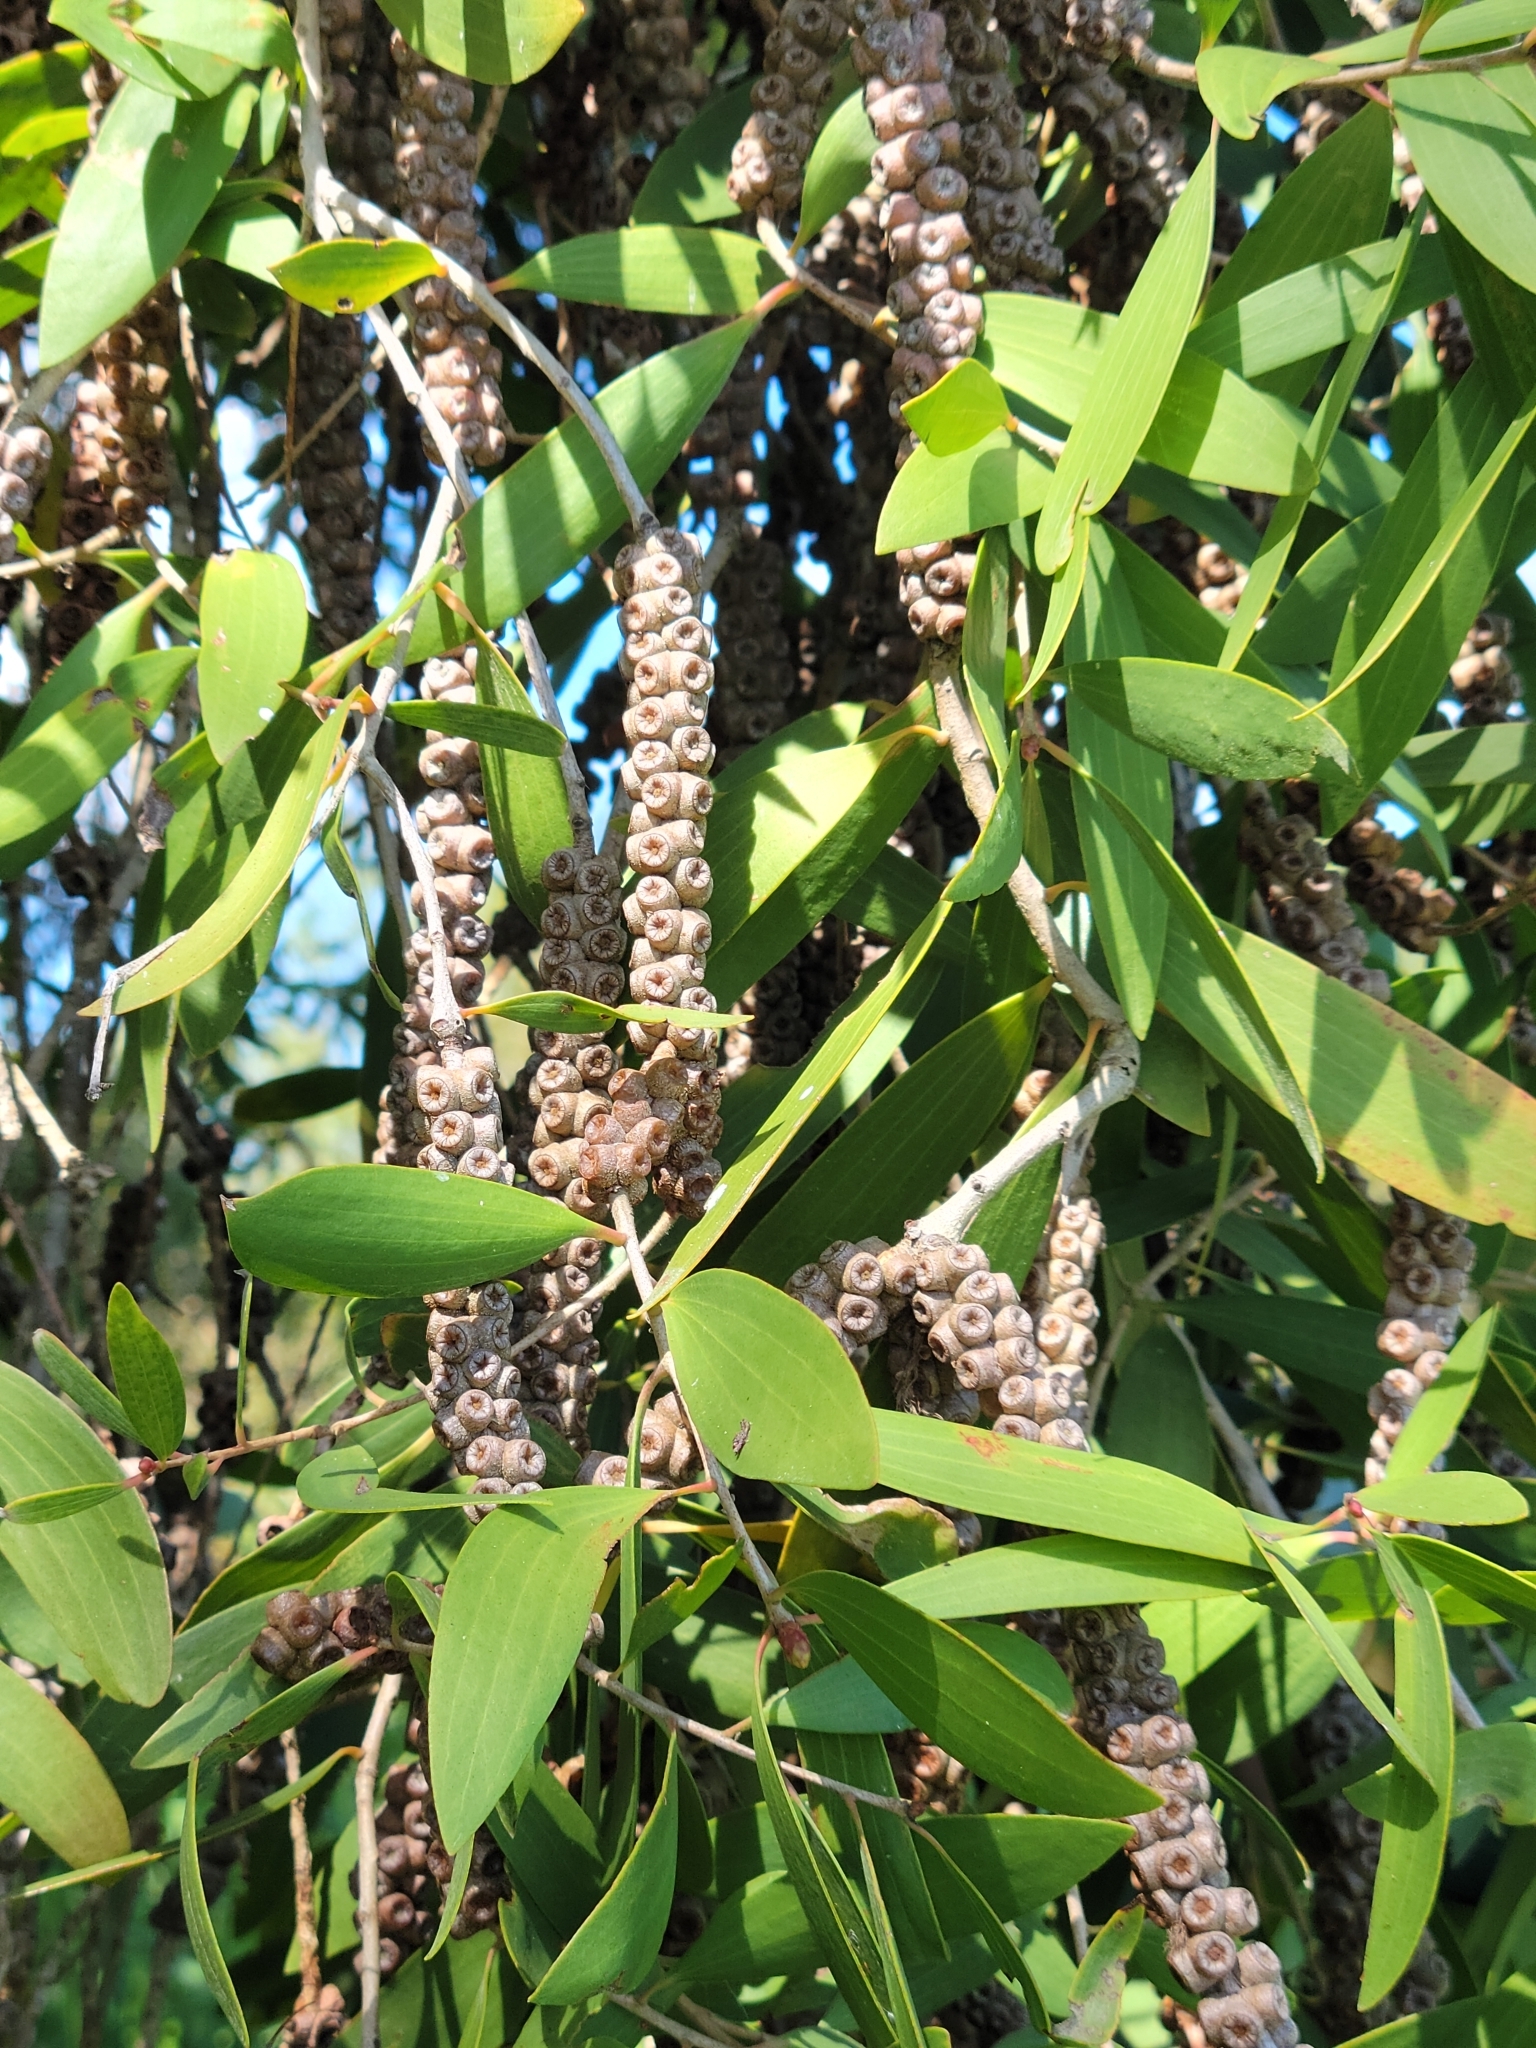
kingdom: Plantae
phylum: Tracheophyta
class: Magnoliopsida
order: Myrtales
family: Myrtaceae
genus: Melaleuca
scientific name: Melaleuca quinquenervia
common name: Punktree
